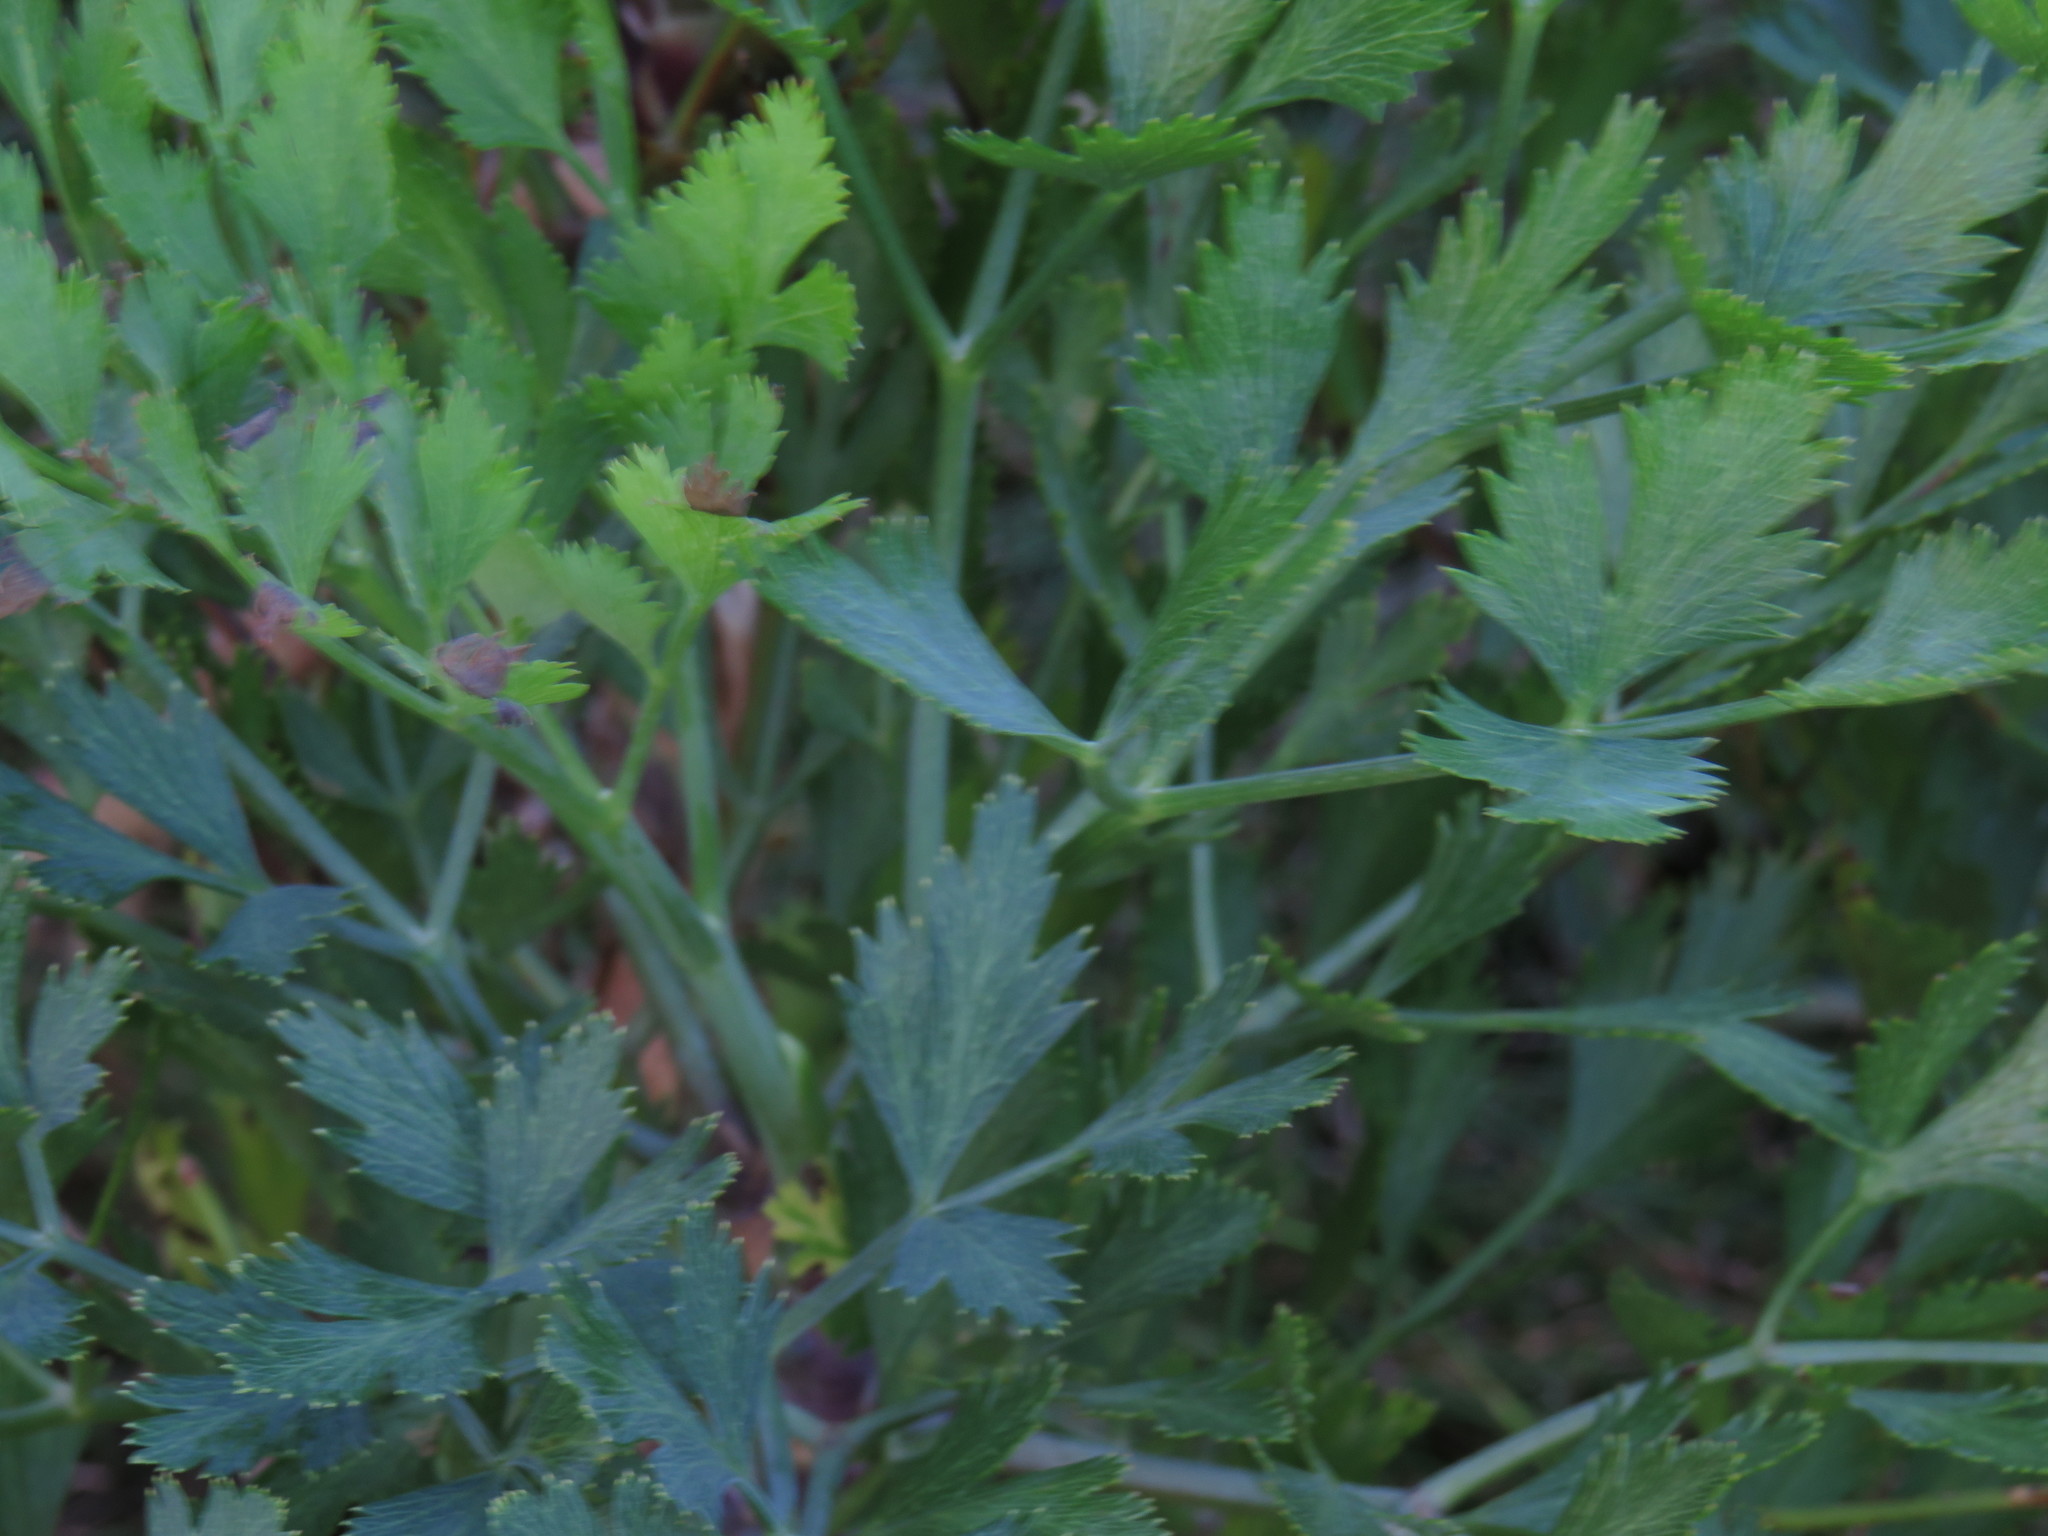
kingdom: Plantae
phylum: Tracheophyta
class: Magnoliopsida
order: Apiales
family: Apiaceae
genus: Notobubon
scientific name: Notobubon galbanum
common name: Blisterbush
